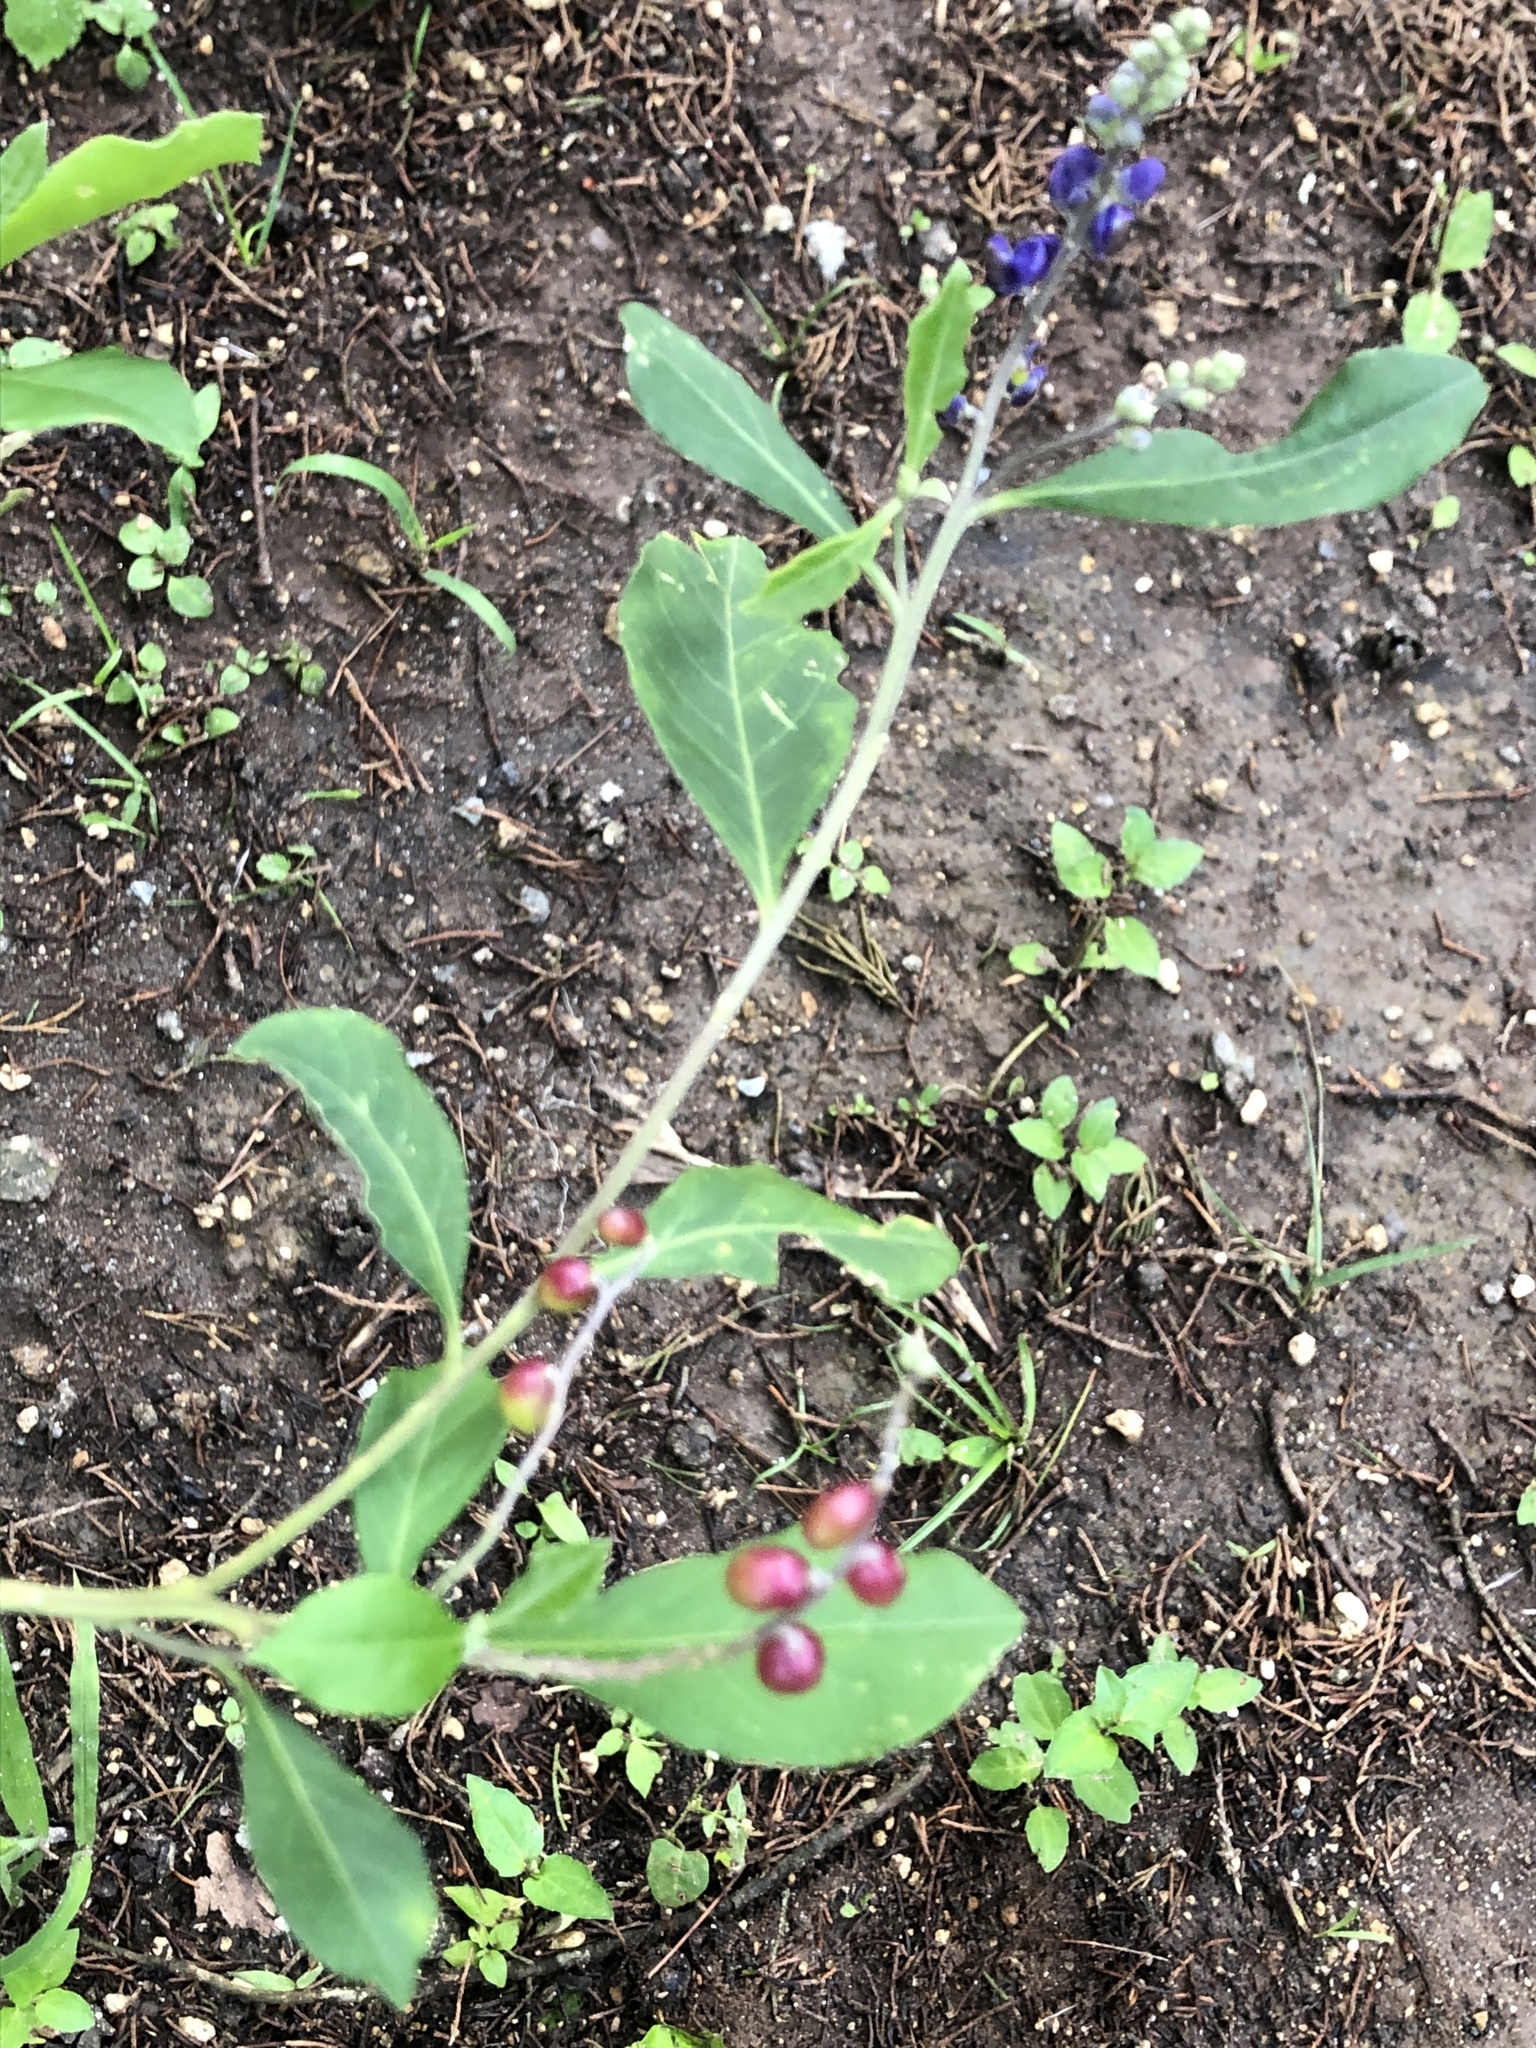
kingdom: Plantae
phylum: Tracheophyta
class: Magnoliopsida
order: Fabales
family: Polygalaceae
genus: Monnina
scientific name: Monnina xalapensis
